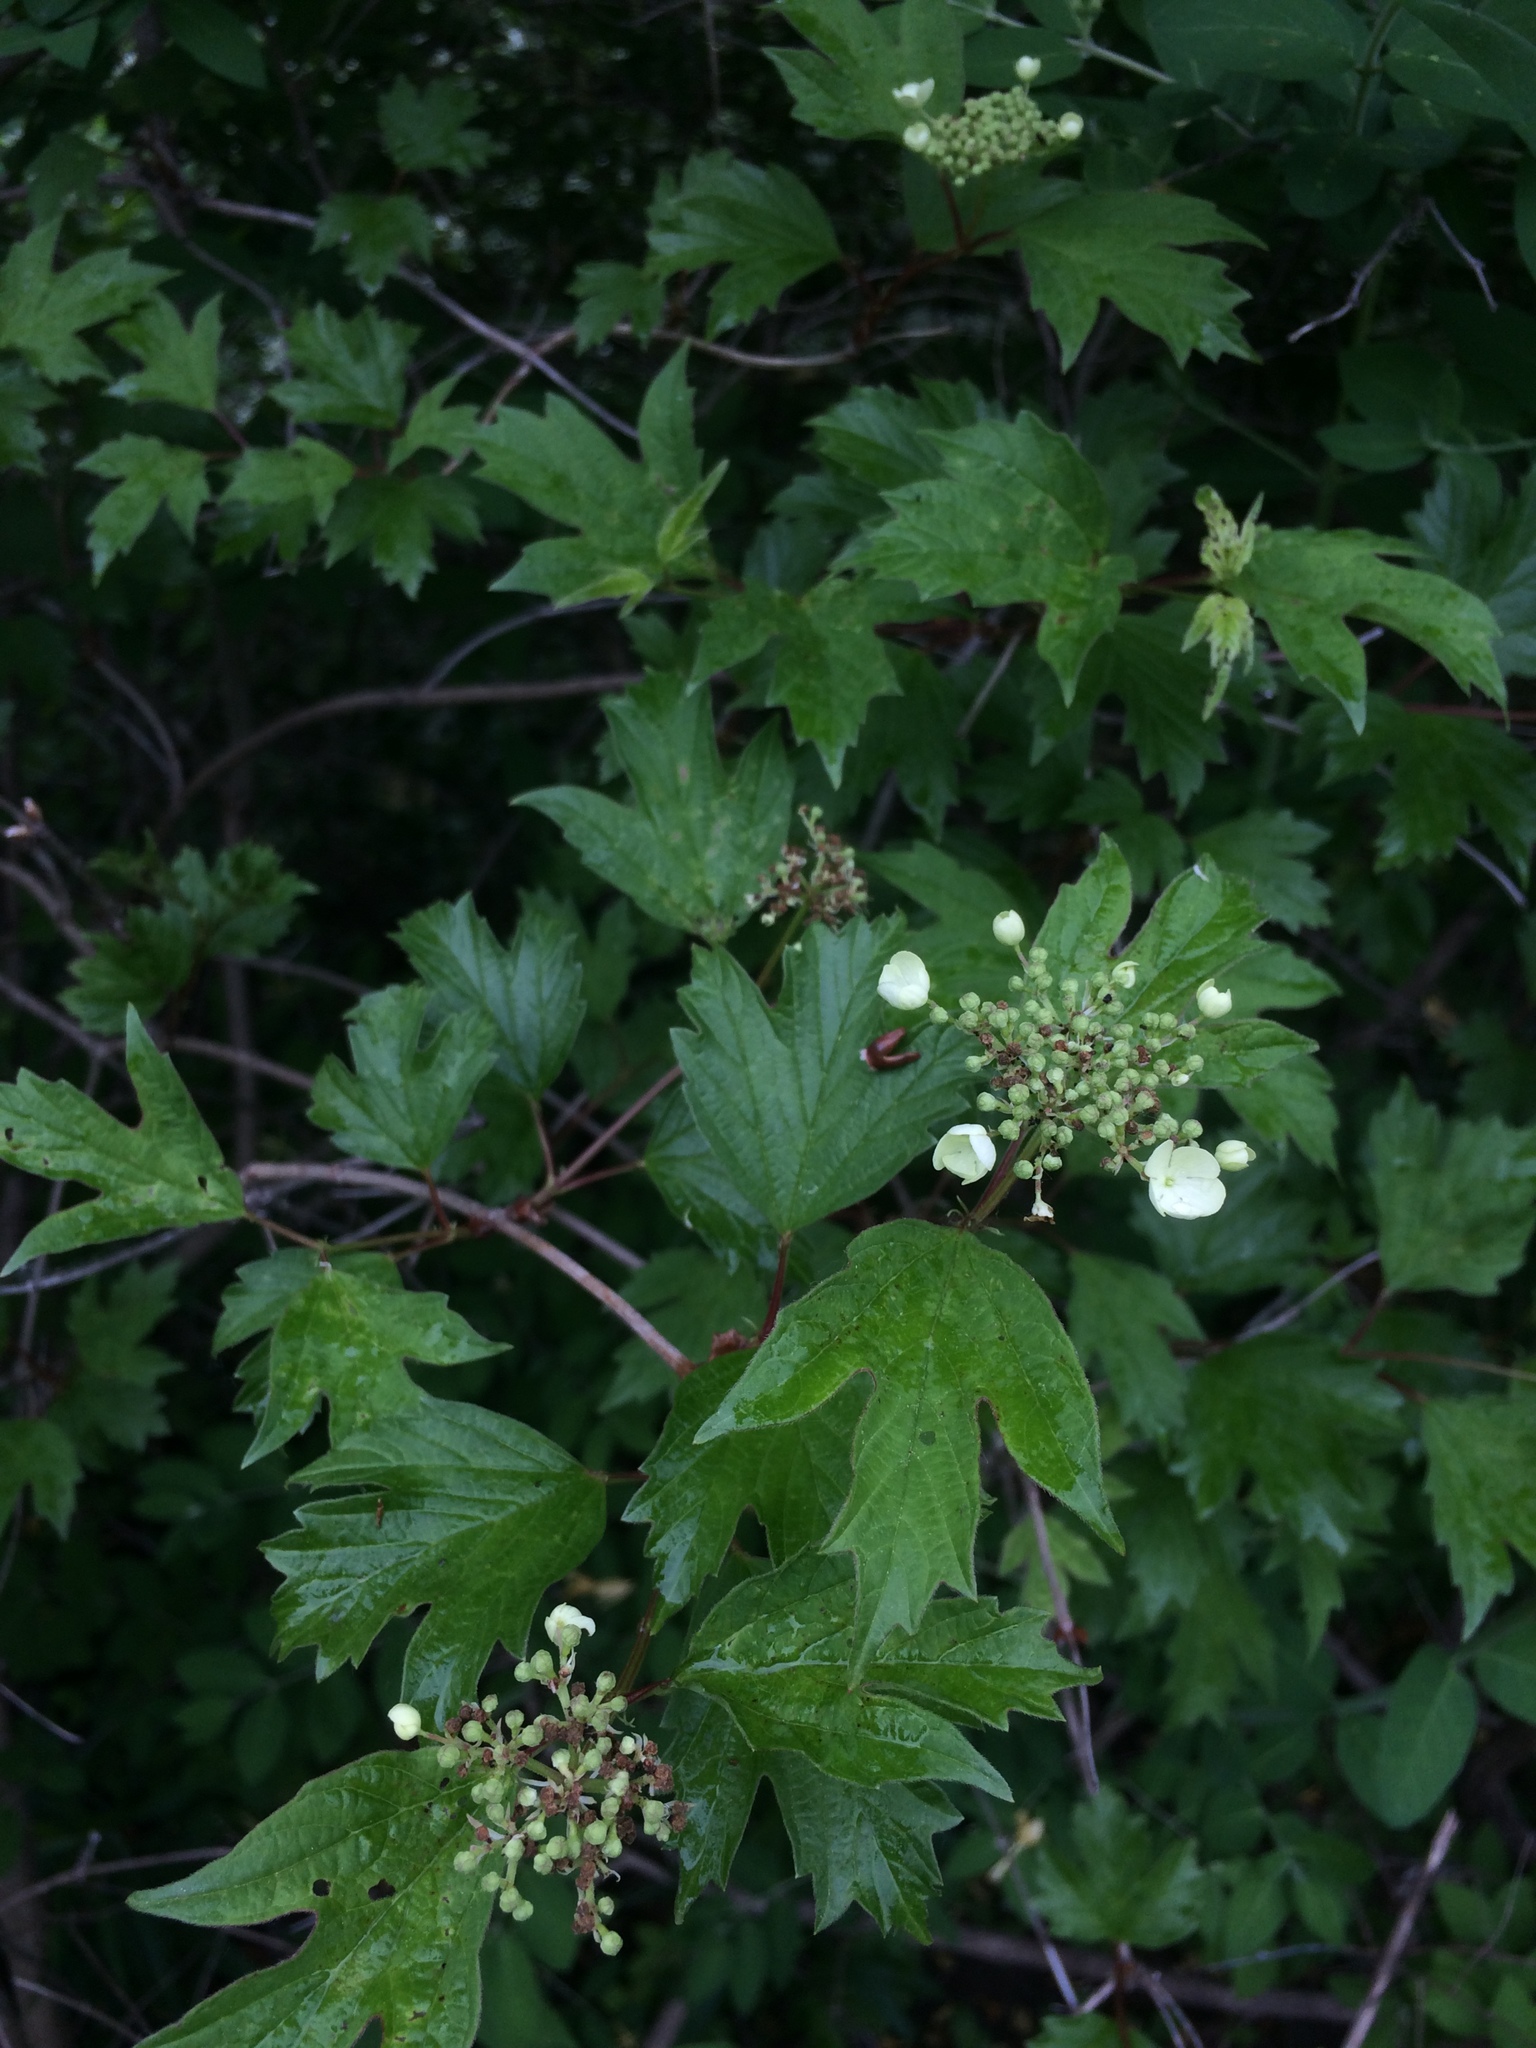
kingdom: Plantae
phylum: Tracheophyta
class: Magnoliopsida
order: Dipsacales
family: Viburnaceae
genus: Viburnum
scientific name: Viburnum opulus
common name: Guelder-rose
